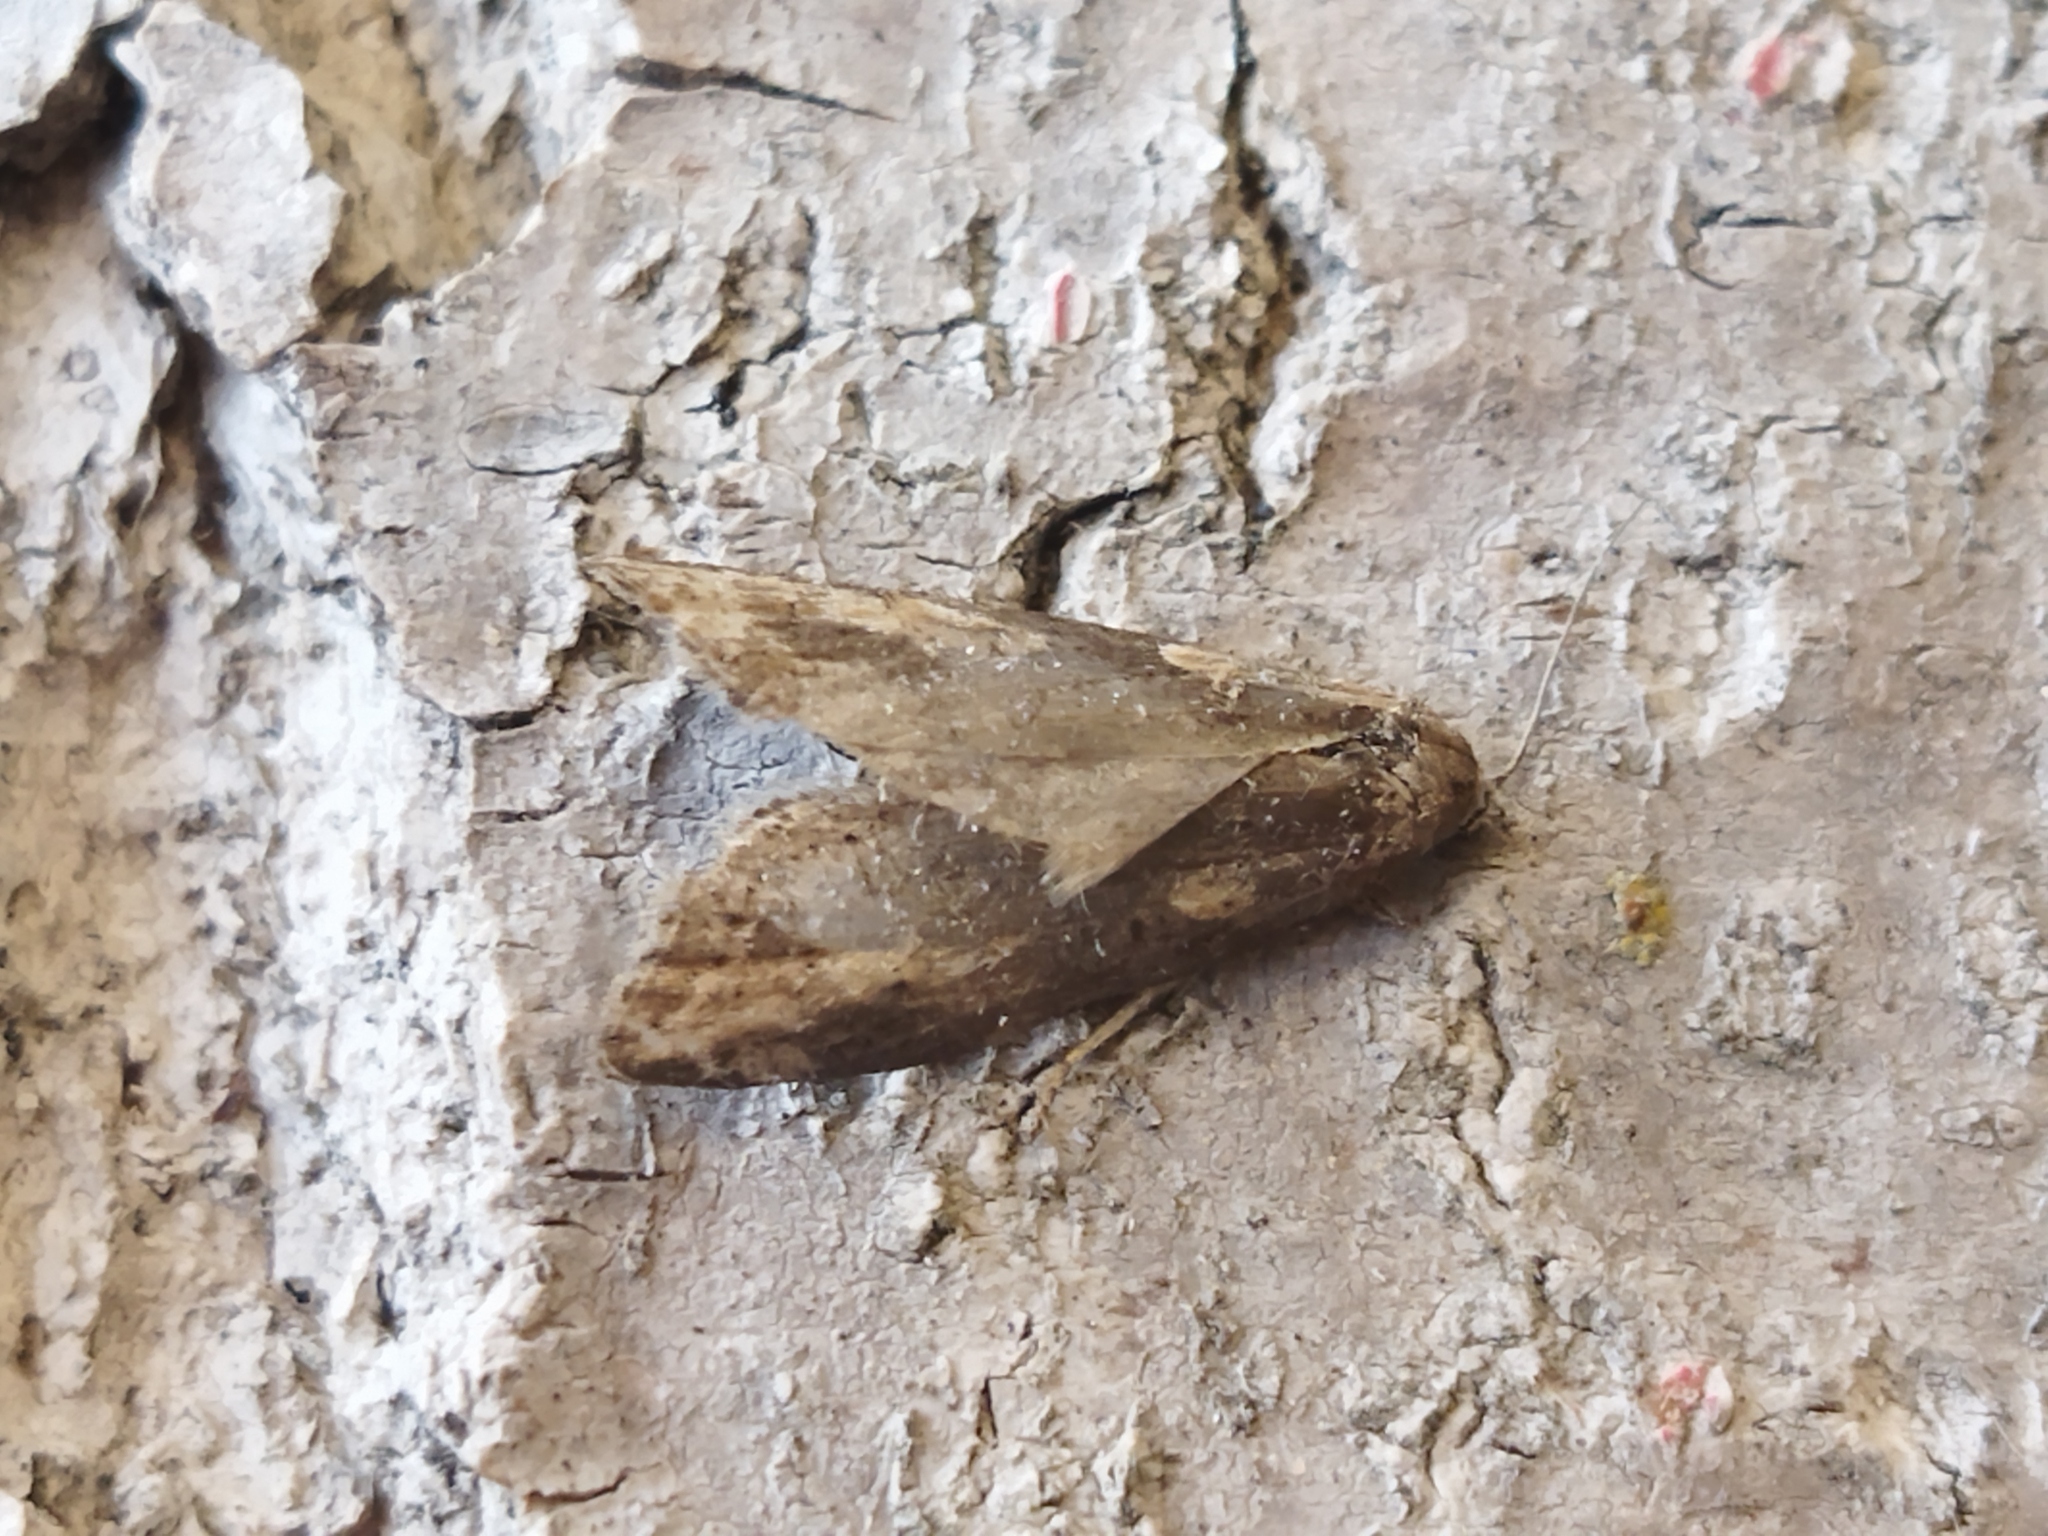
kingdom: Animalia
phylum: Arthropoda
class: Insecta
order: Lepidoptera
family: Tortricidae
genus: Doloploca
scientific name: Doloploca punctulana
